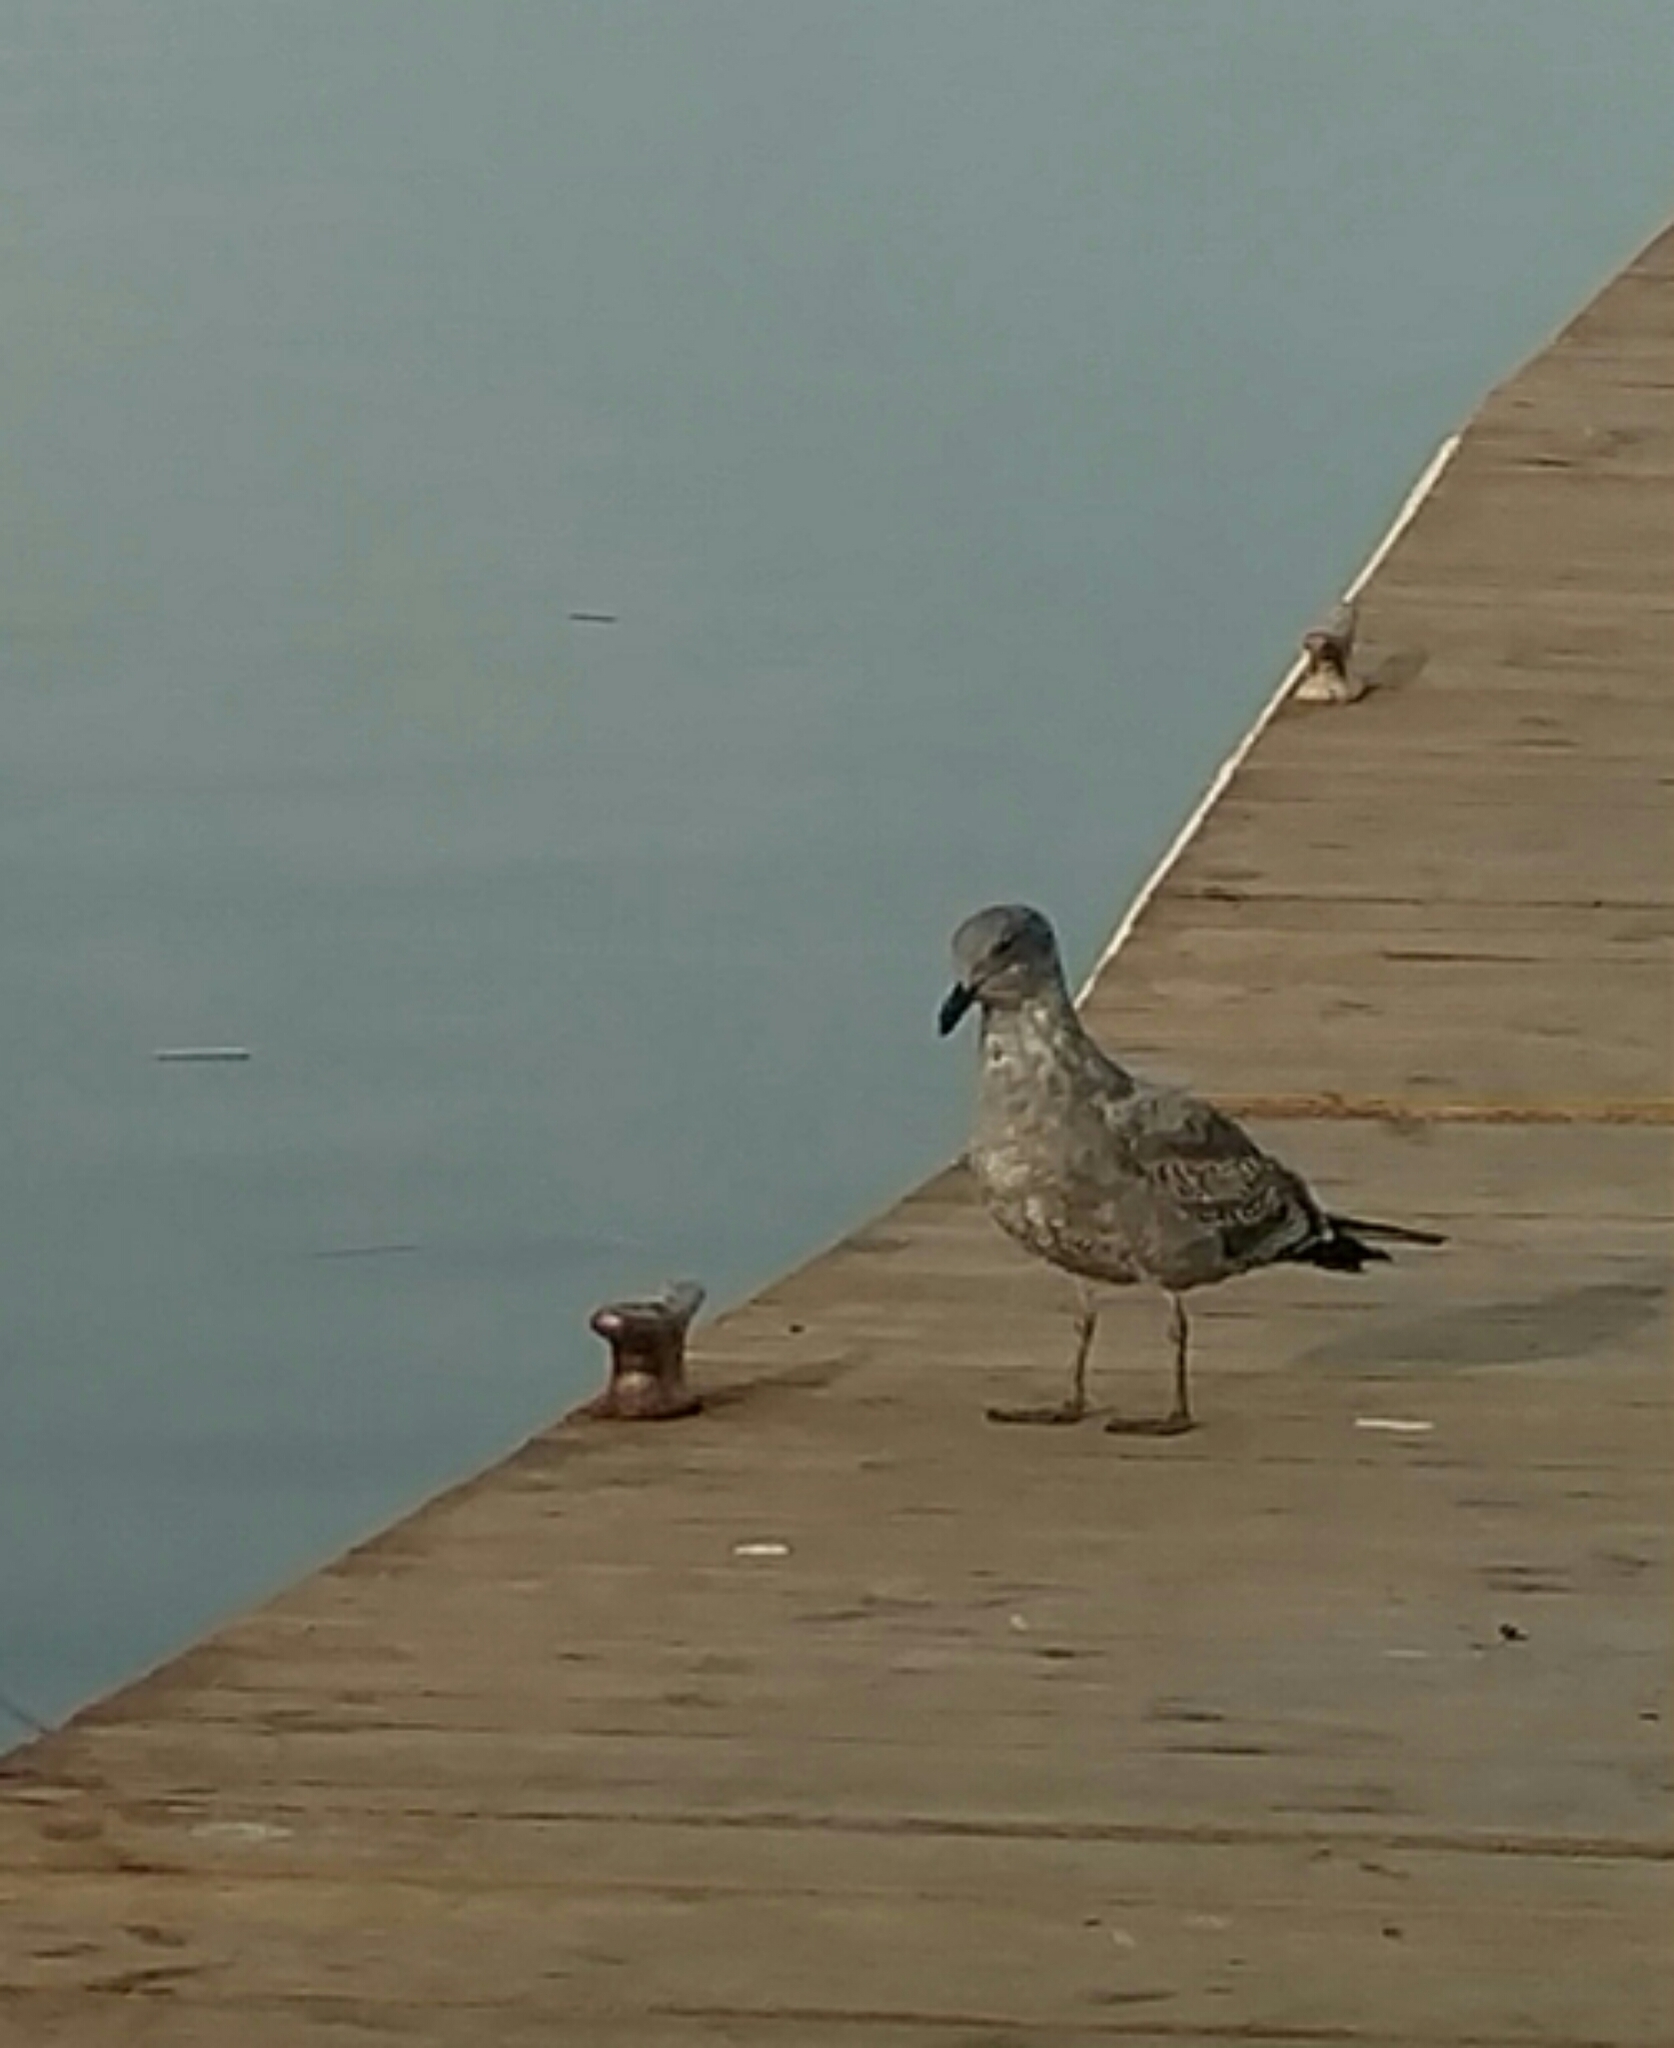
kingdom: Animalia
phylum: Chordata
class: Aves
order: Charadriiformes
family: Laridae
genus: Larus
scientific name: Larus occidentalis
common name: Western gull
